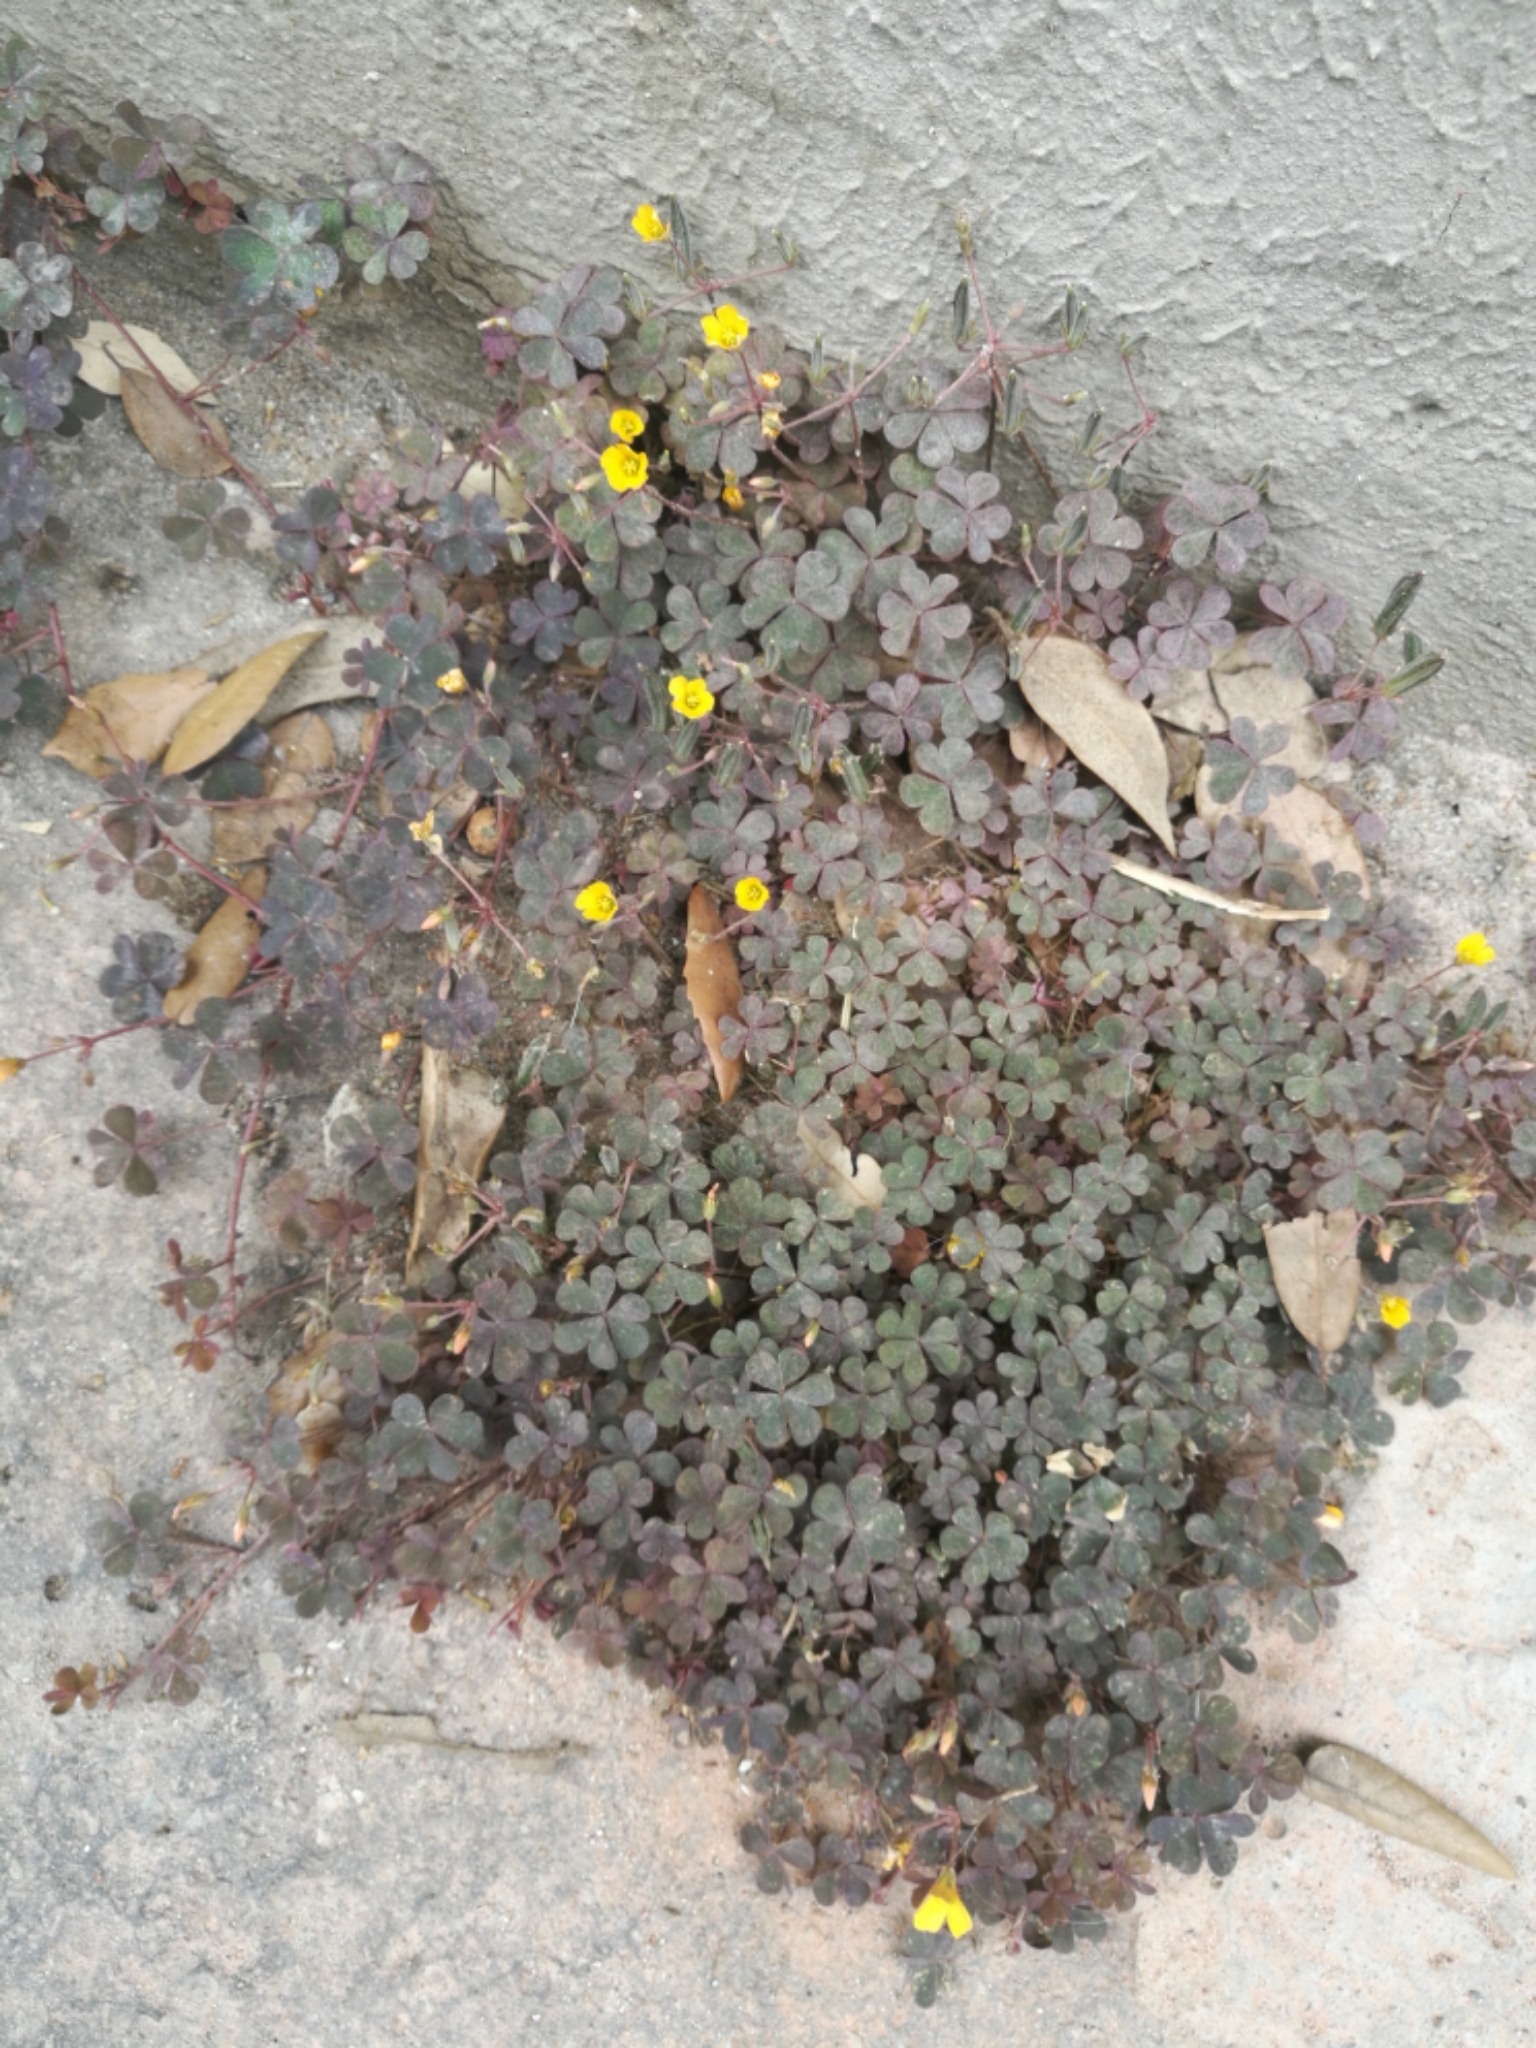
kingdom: Plantae
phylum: Tracheophyta
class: Magnoliopsida
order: Oxalidales
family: Oxalidaceae
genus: Oxalis
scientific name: Oxalis corniculata
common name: Procumbent yellow-sorrel
